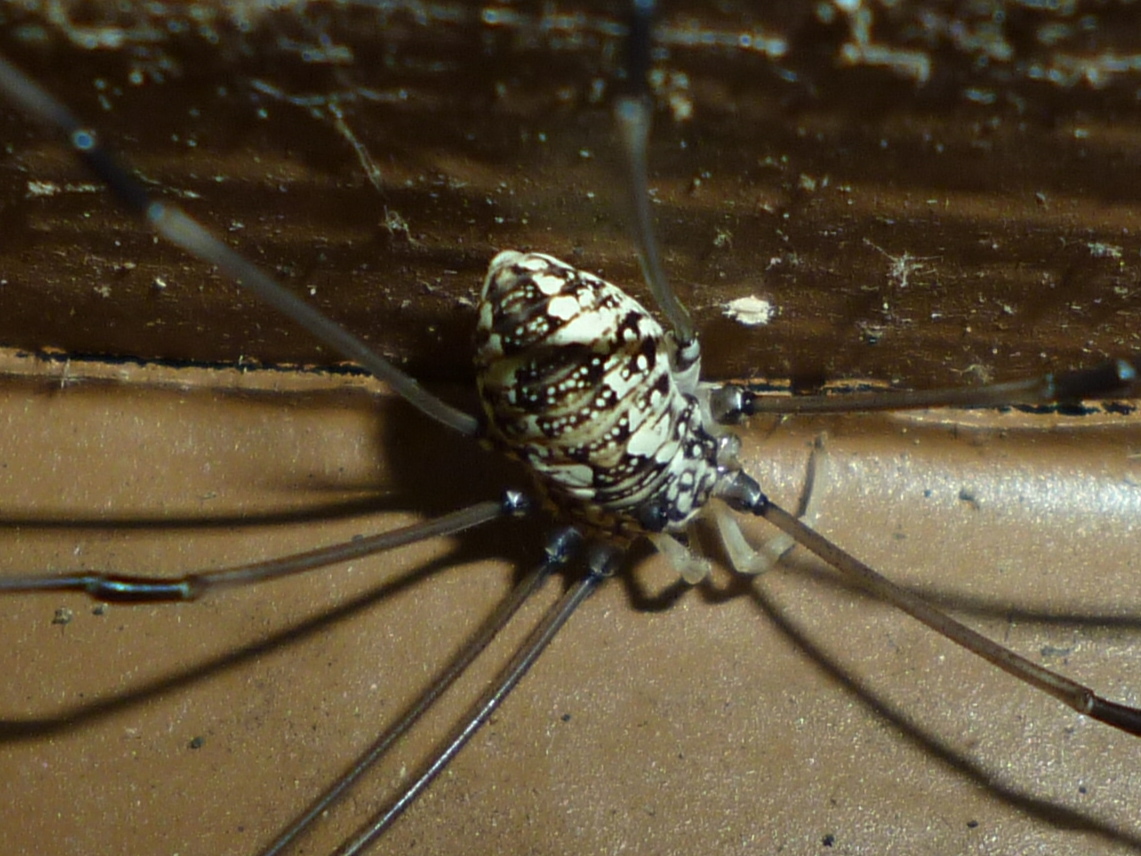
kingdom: Animalia
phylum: Arthropoda
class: Arachnida
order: Opiliones
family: Sclerosomatidae
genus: Leiobunum
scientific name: Leiobunum vittatum
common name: Eastern harvestman
